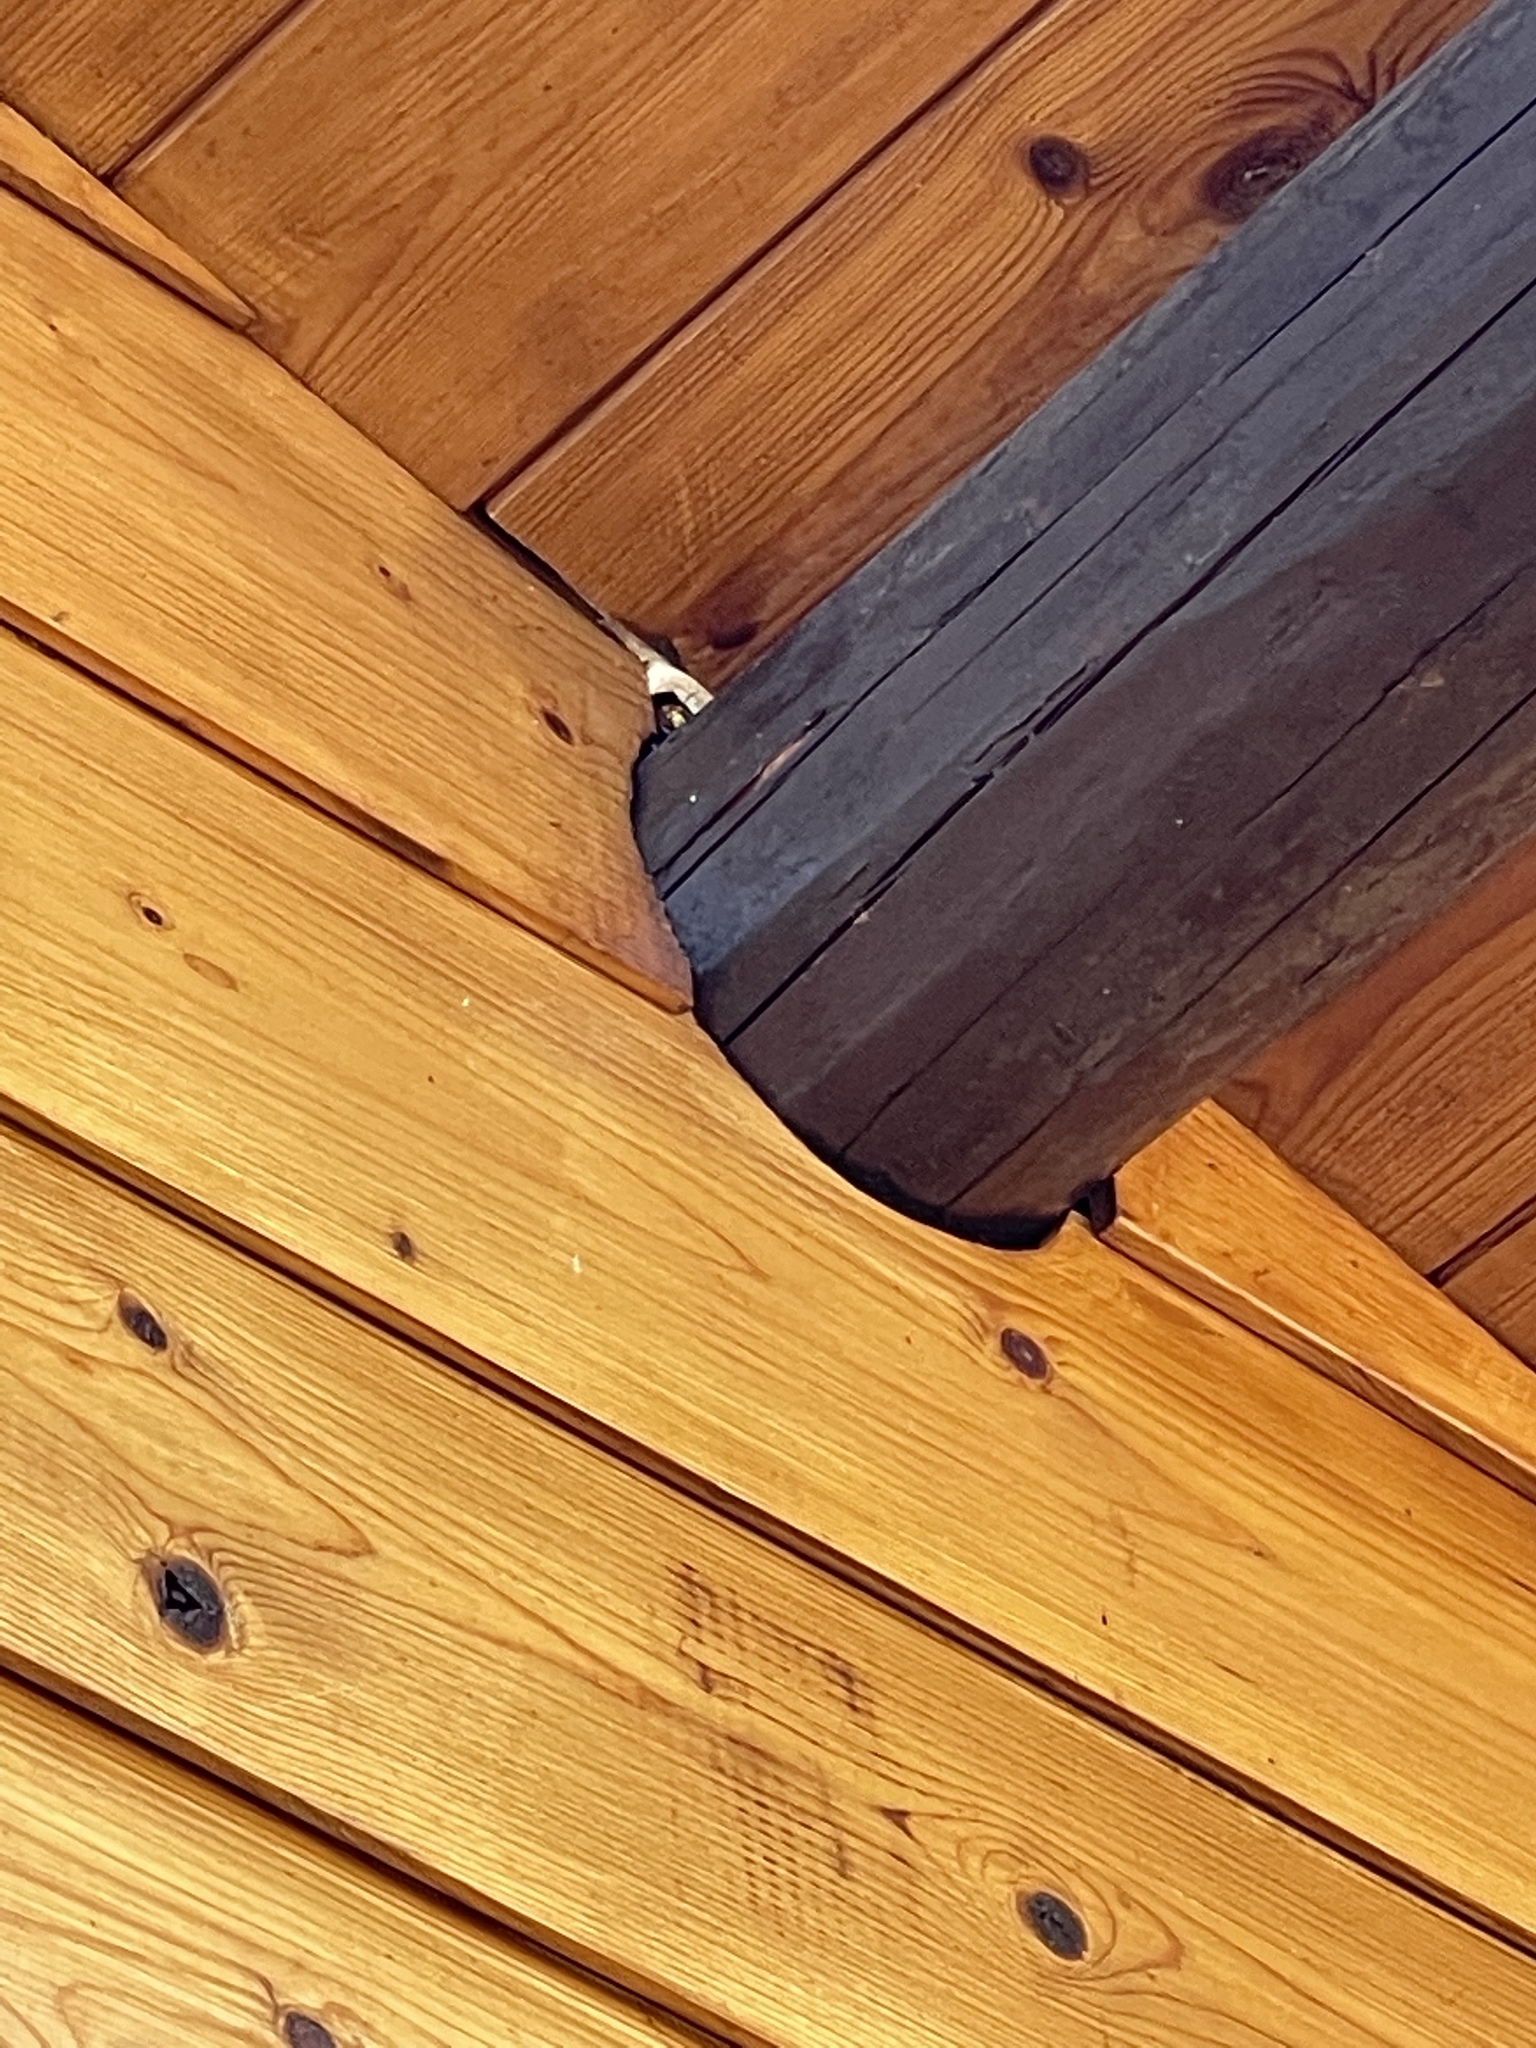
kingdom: Animalia
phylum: Arthropoda
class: Insecta
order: Hymenoptera
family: Vespidae
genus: Vespa
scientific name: Vespa crabro
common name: Hornet
